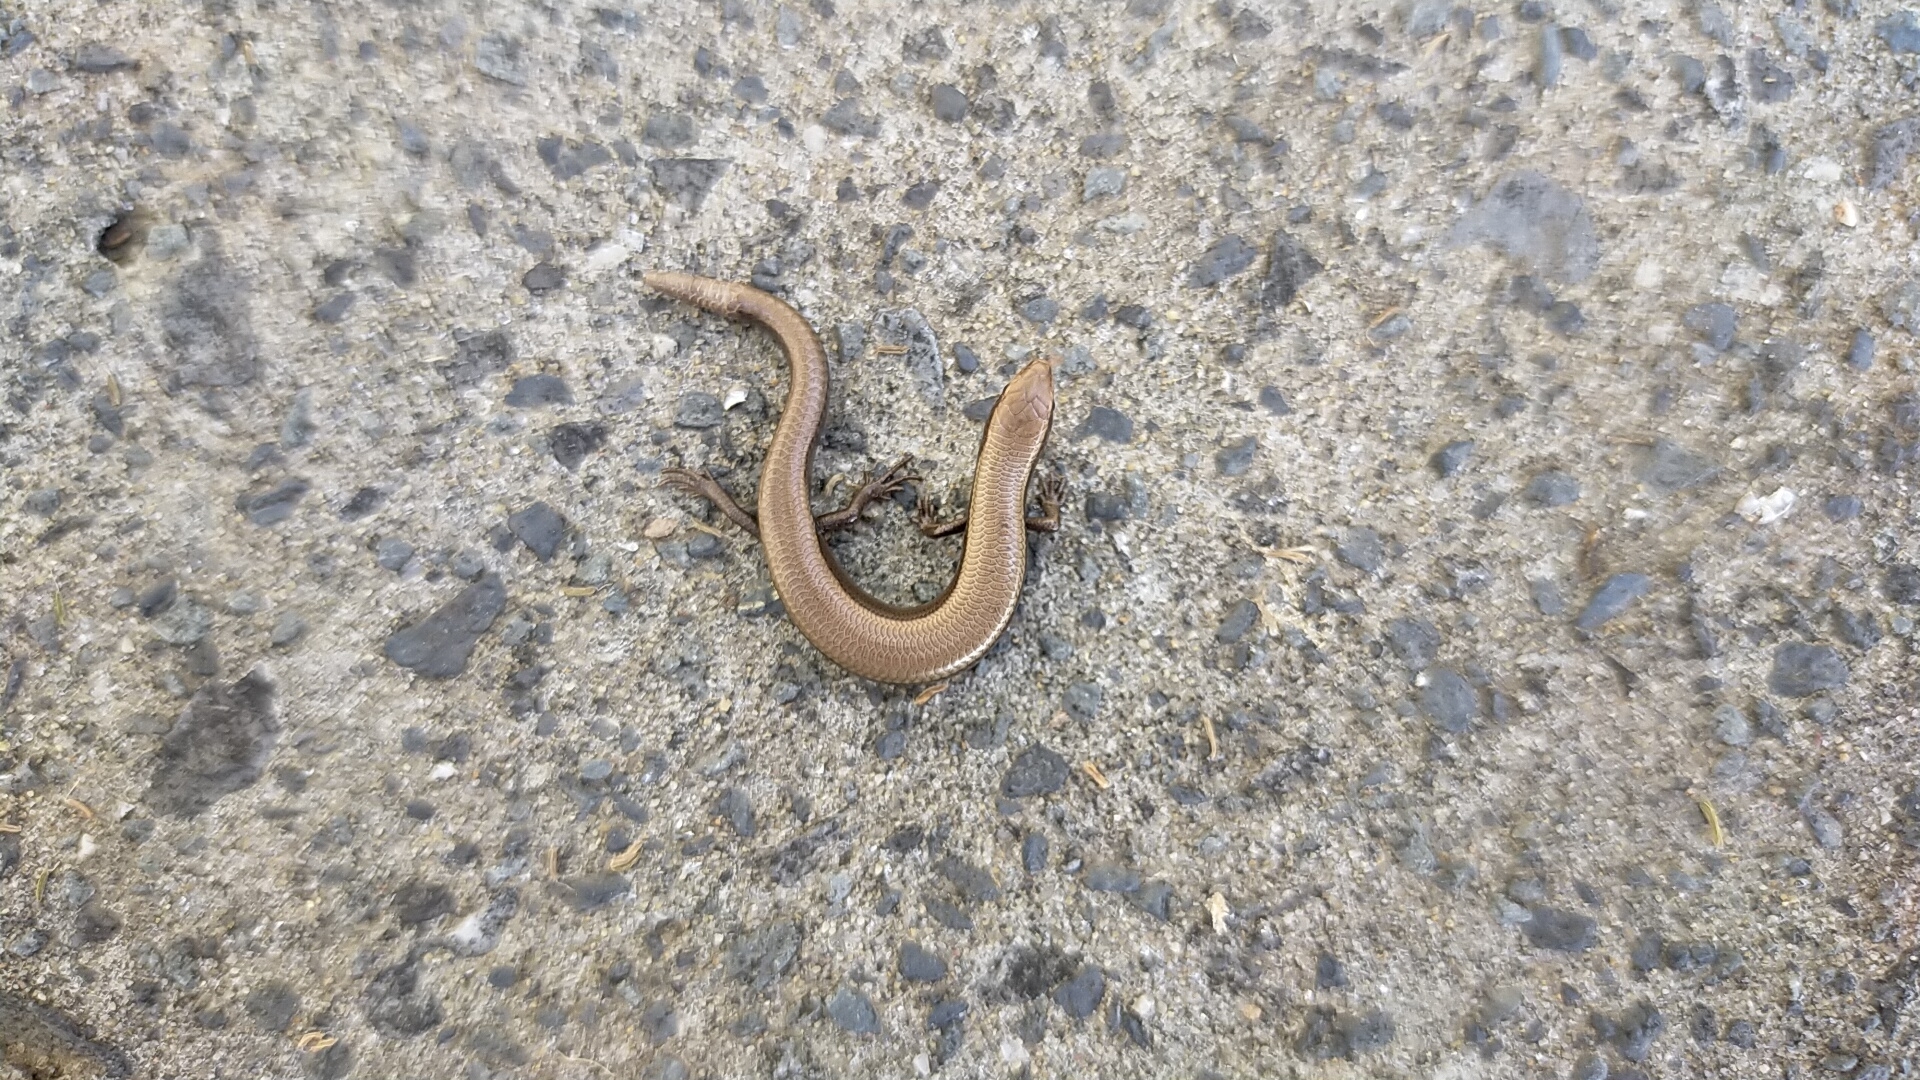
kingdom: Animalia
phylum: Chordata
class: Squamata
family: Scincidae
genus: Ablepharus
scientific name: Ablepharus kitaibelii
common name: Juniper skink
